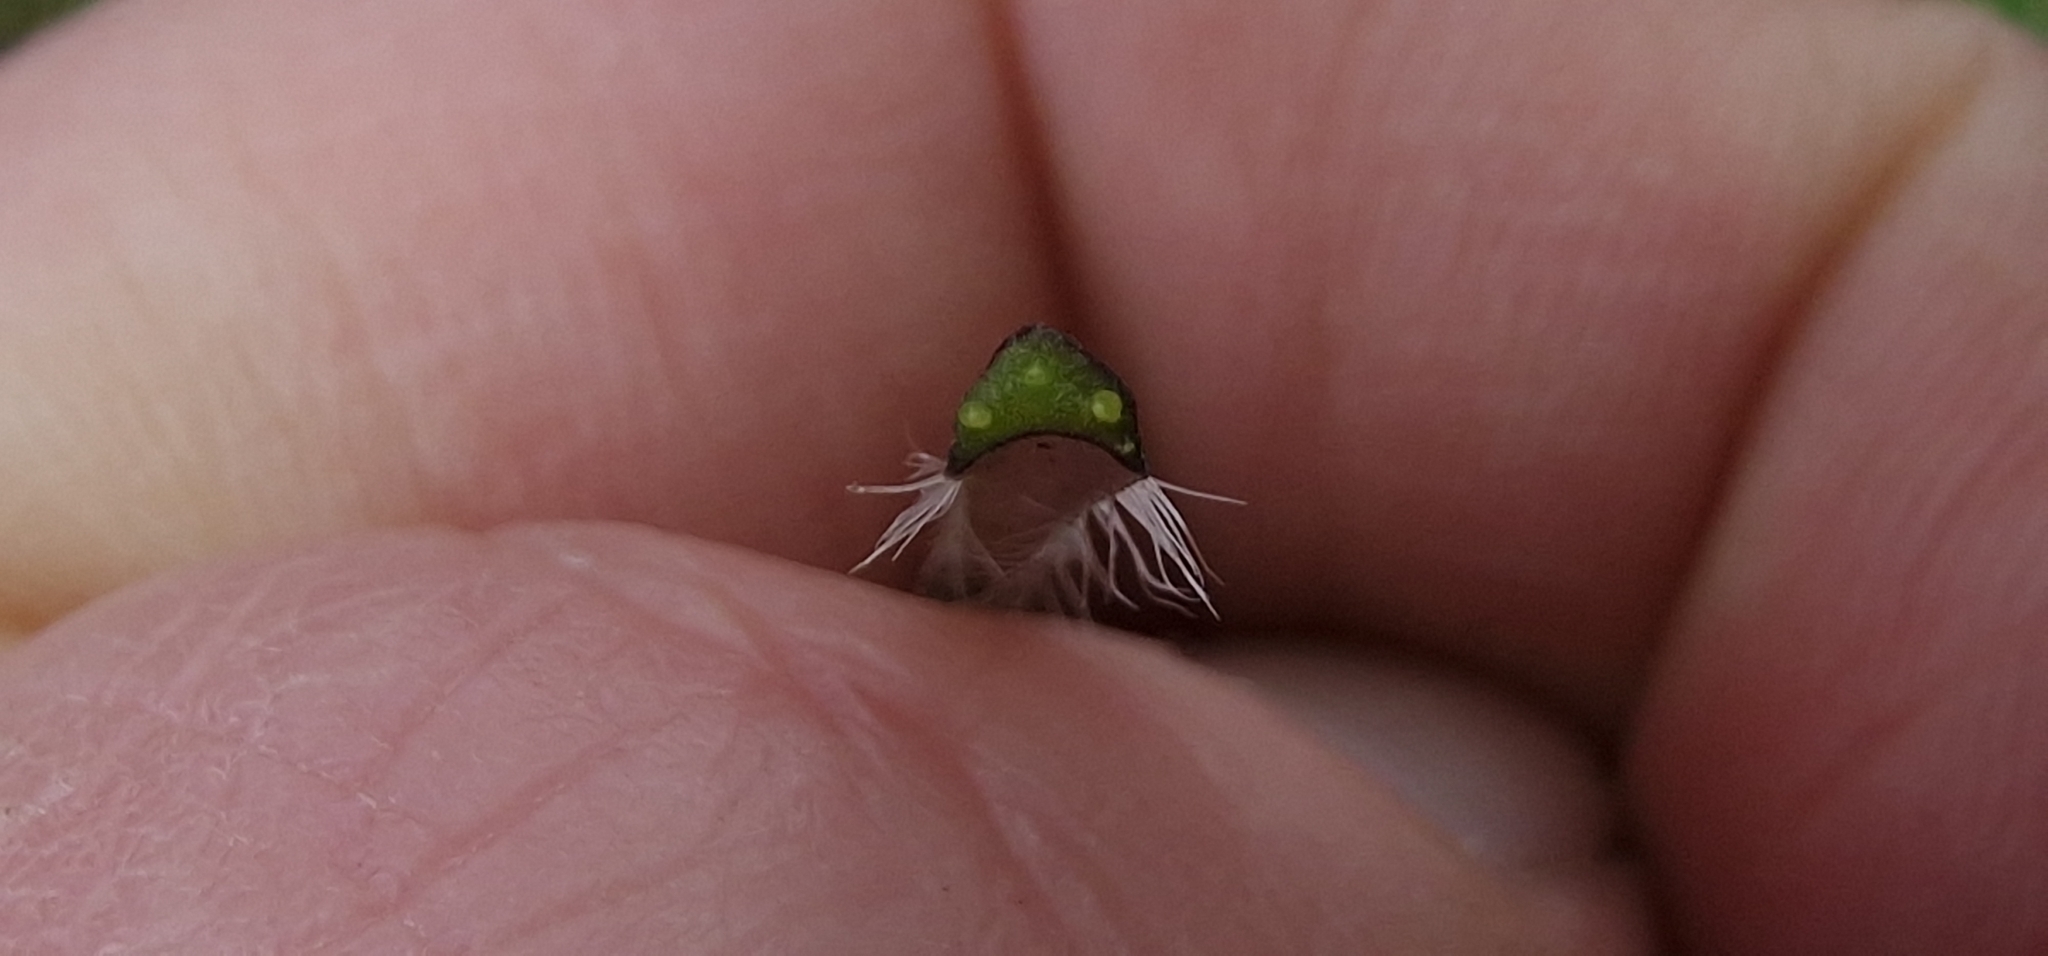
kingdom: Plantae
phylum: Tracheophyta
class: Magnoliopsida
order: Brassicales
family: Brassicaceae
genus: Alliaria
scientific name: Alliaria petiolata
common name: Garlic mustard
